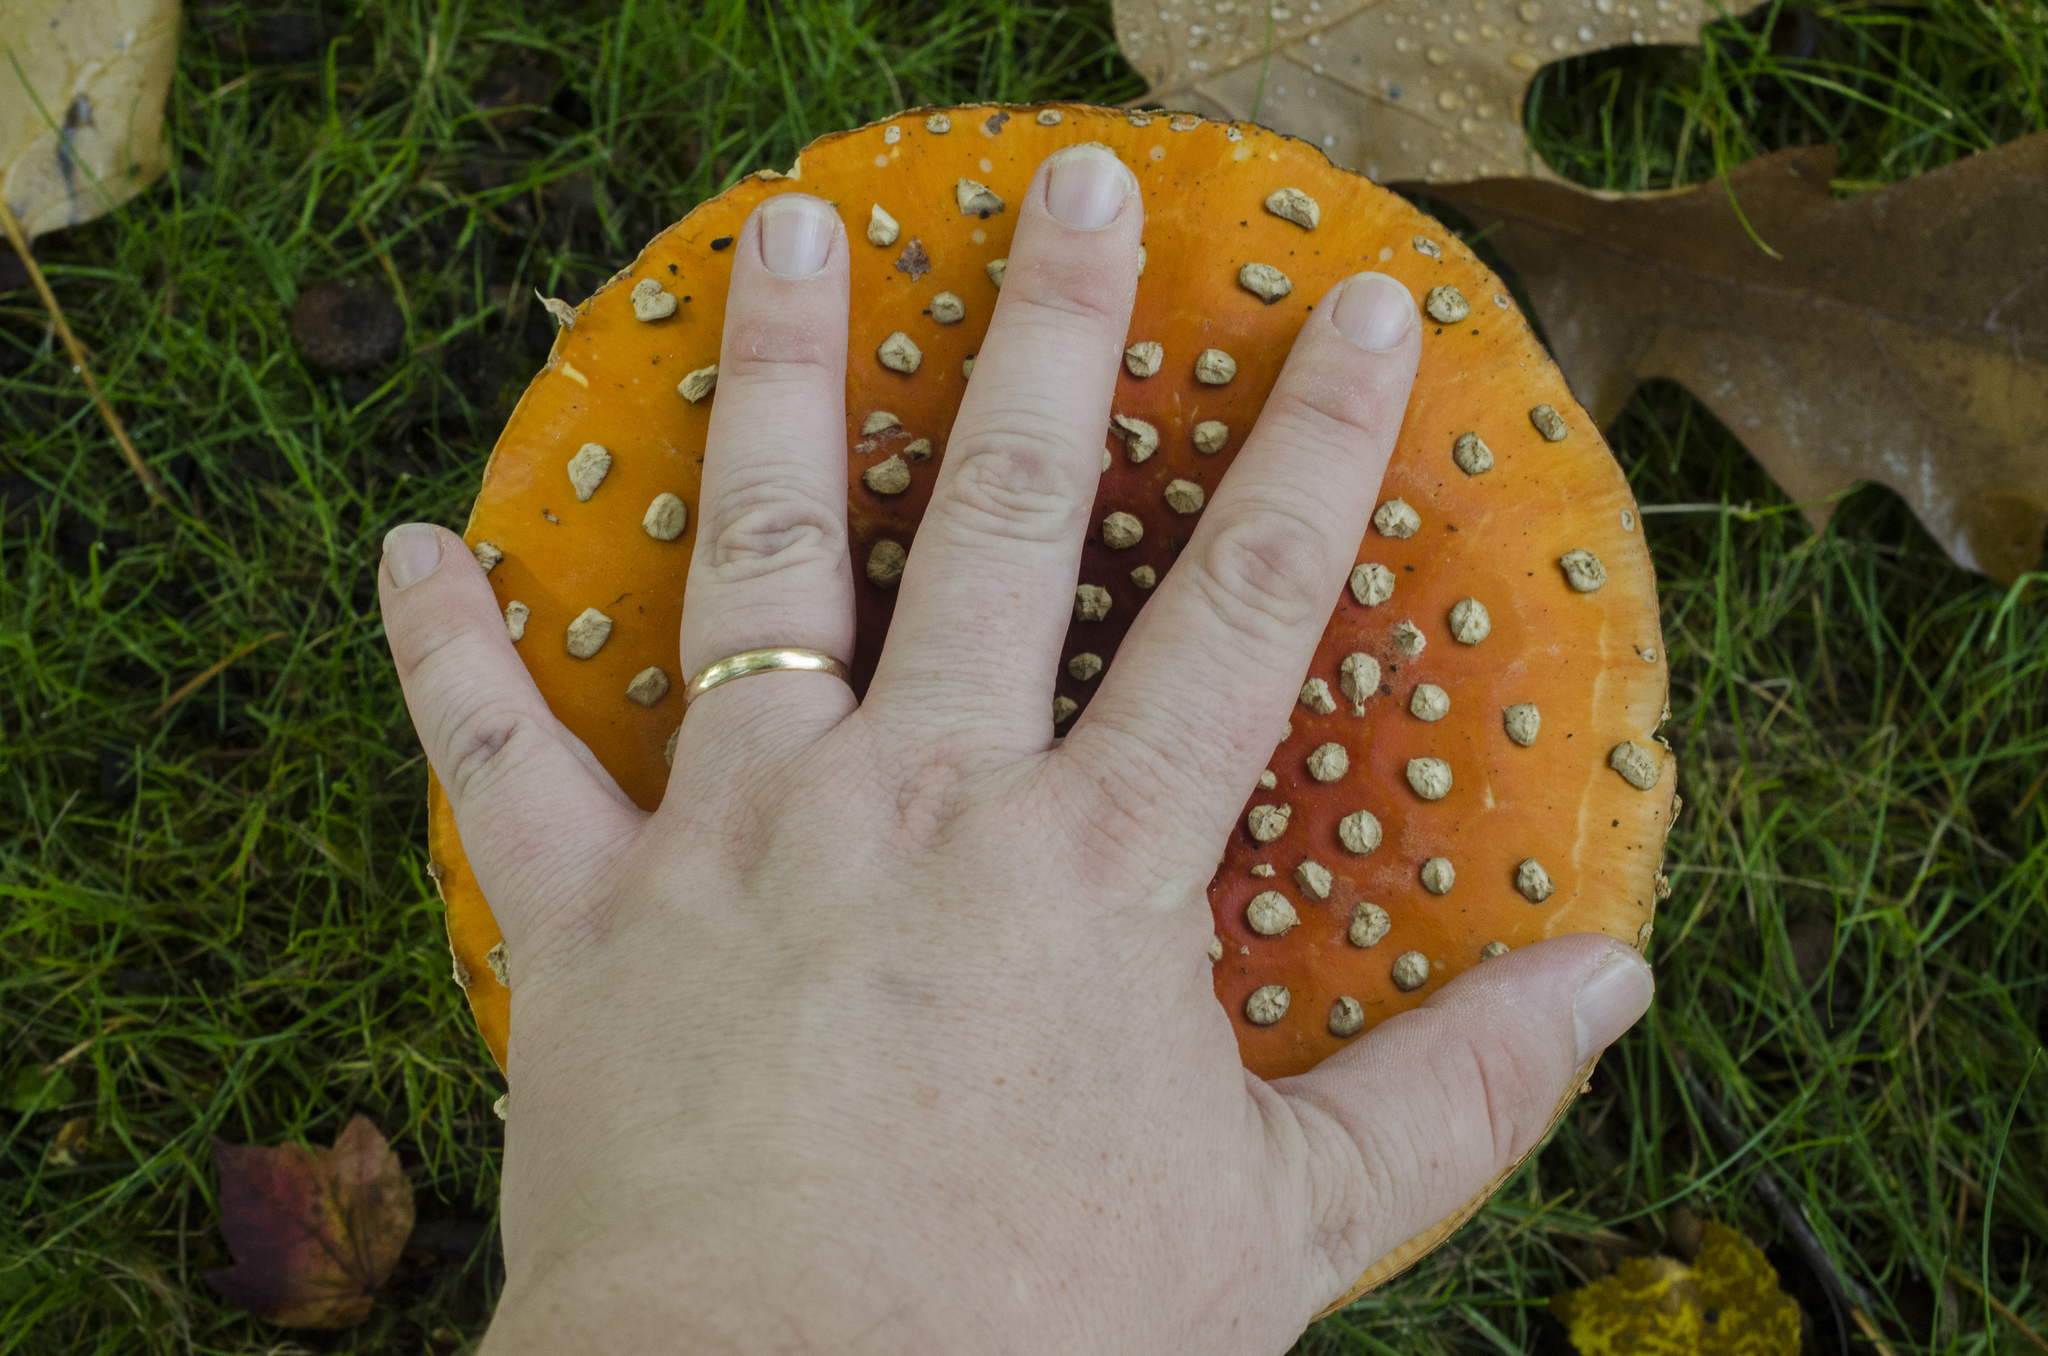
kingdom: Fungi
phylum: Basidiomycota
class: Agaricomycetes
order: Agaricales
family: Amanitaceae
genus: Amanita
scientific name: Amanita muscaria
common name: Fly agaric
